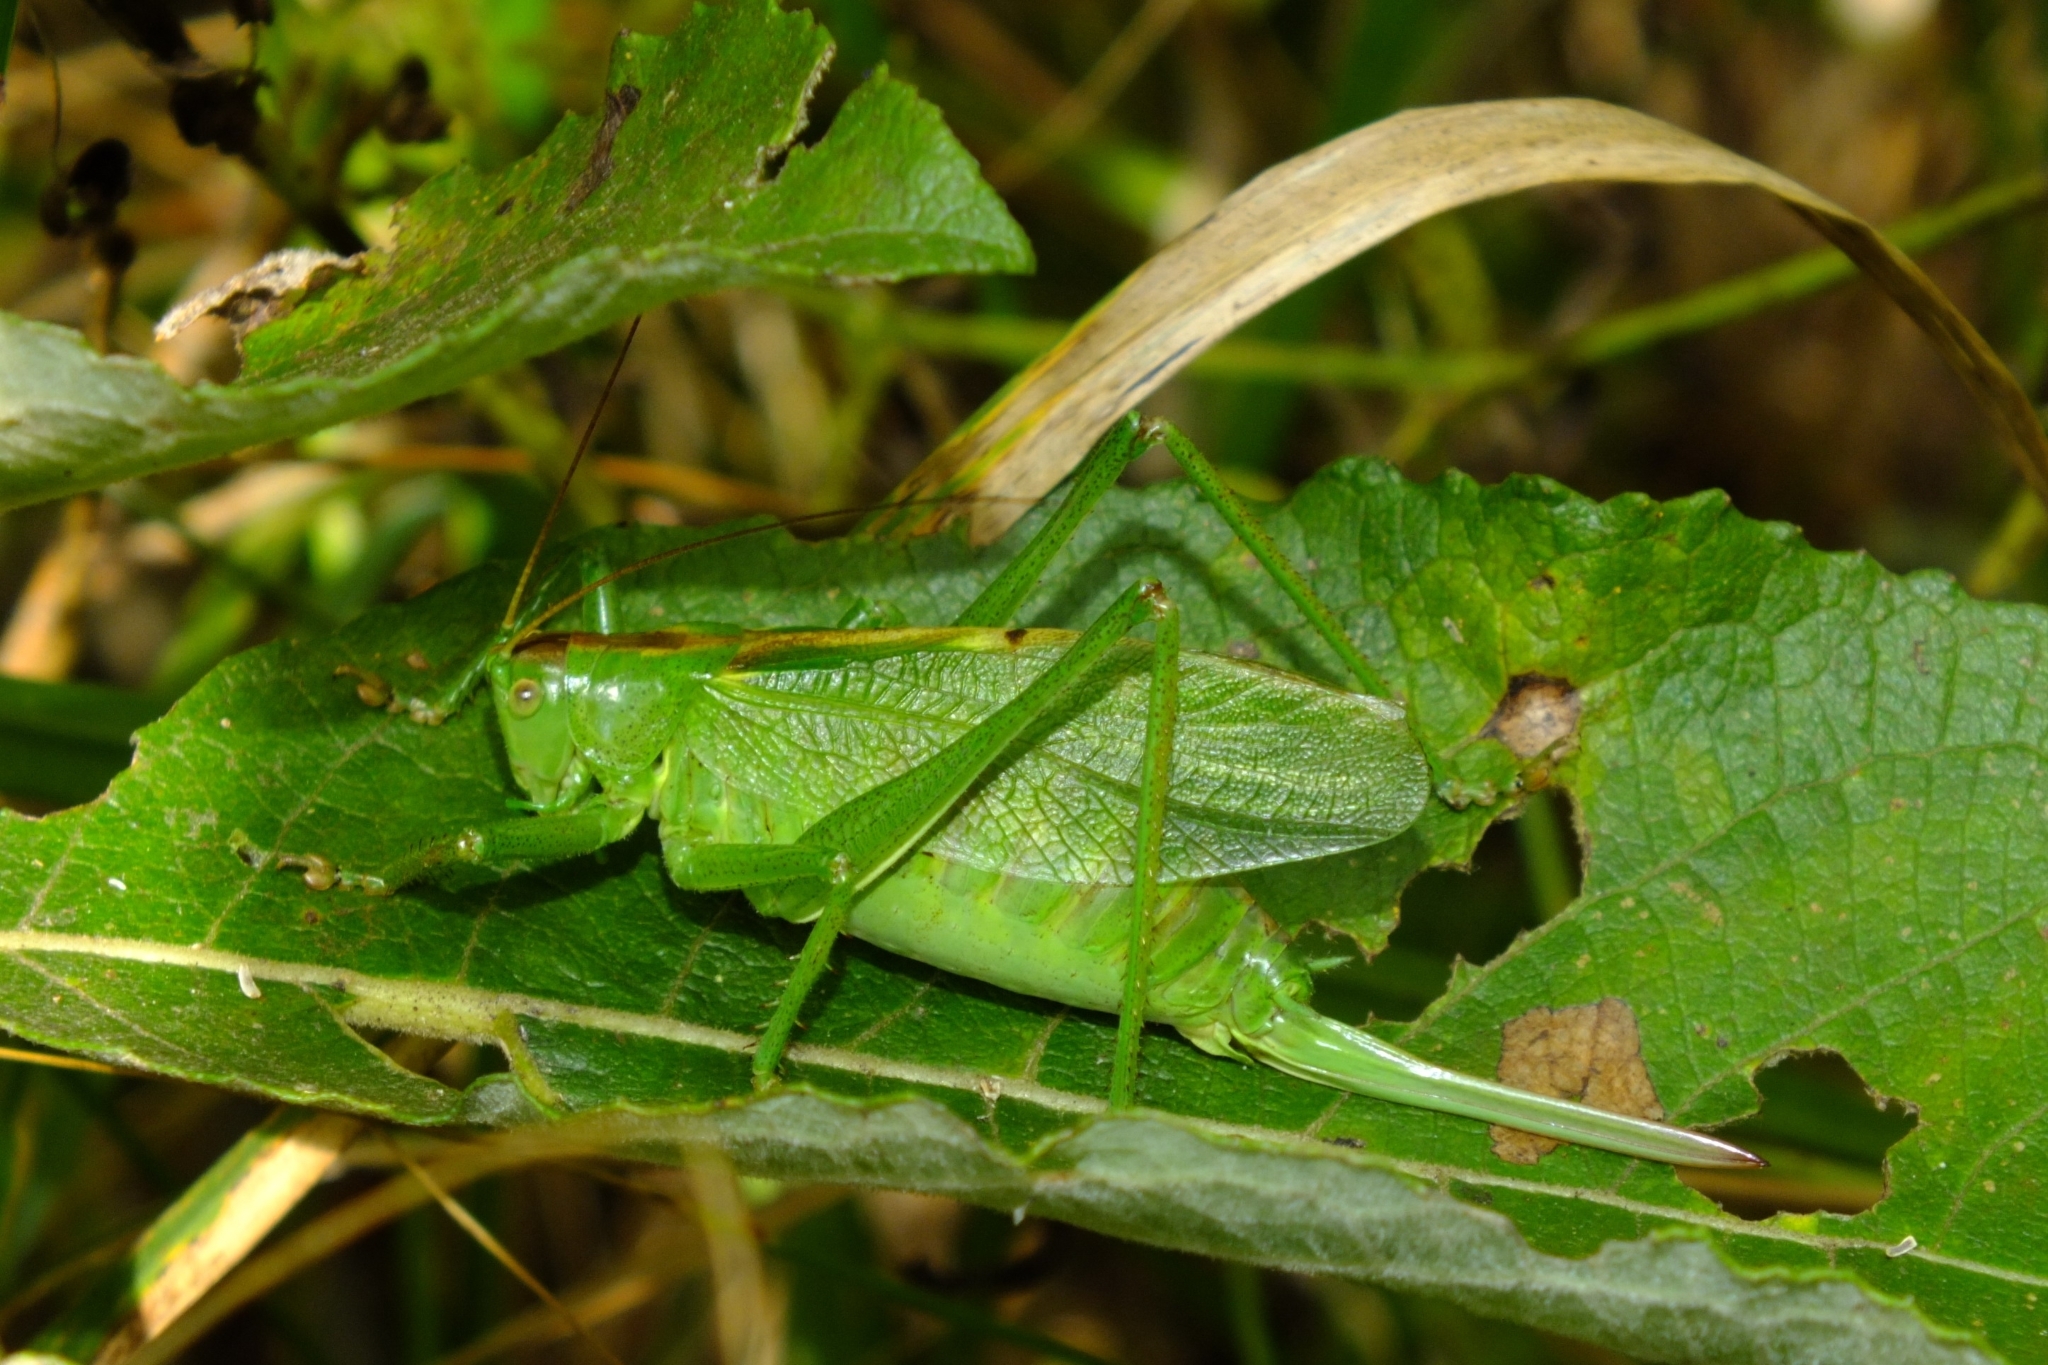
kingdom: Animalia
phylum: Arthropoda
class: Insecta
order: Orthoptera
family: Tettigoniidae
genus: Tettigonia
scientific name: Tettigonia cantans
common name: Upland green bush-cricket
